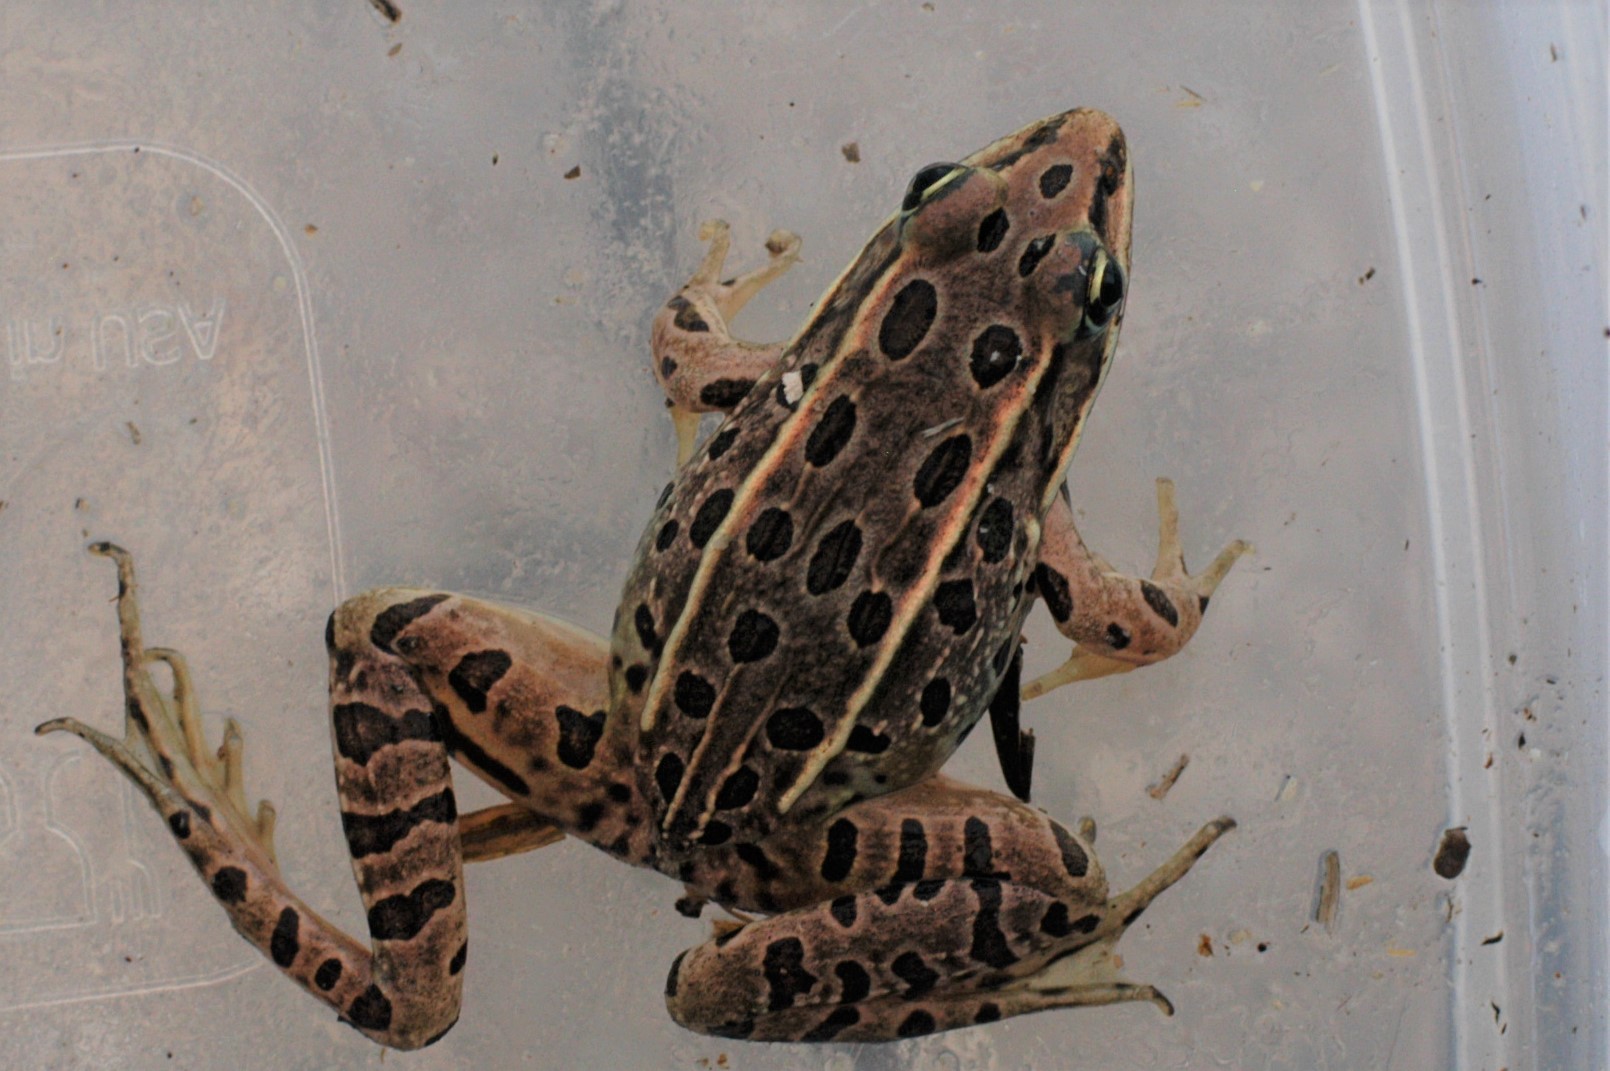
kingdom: Animalia
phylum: Chordata
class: Amphibia
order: Anura
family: Ranidae
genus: Lithobates
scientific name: Lithobates pipiens
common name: Northern leopard frog
